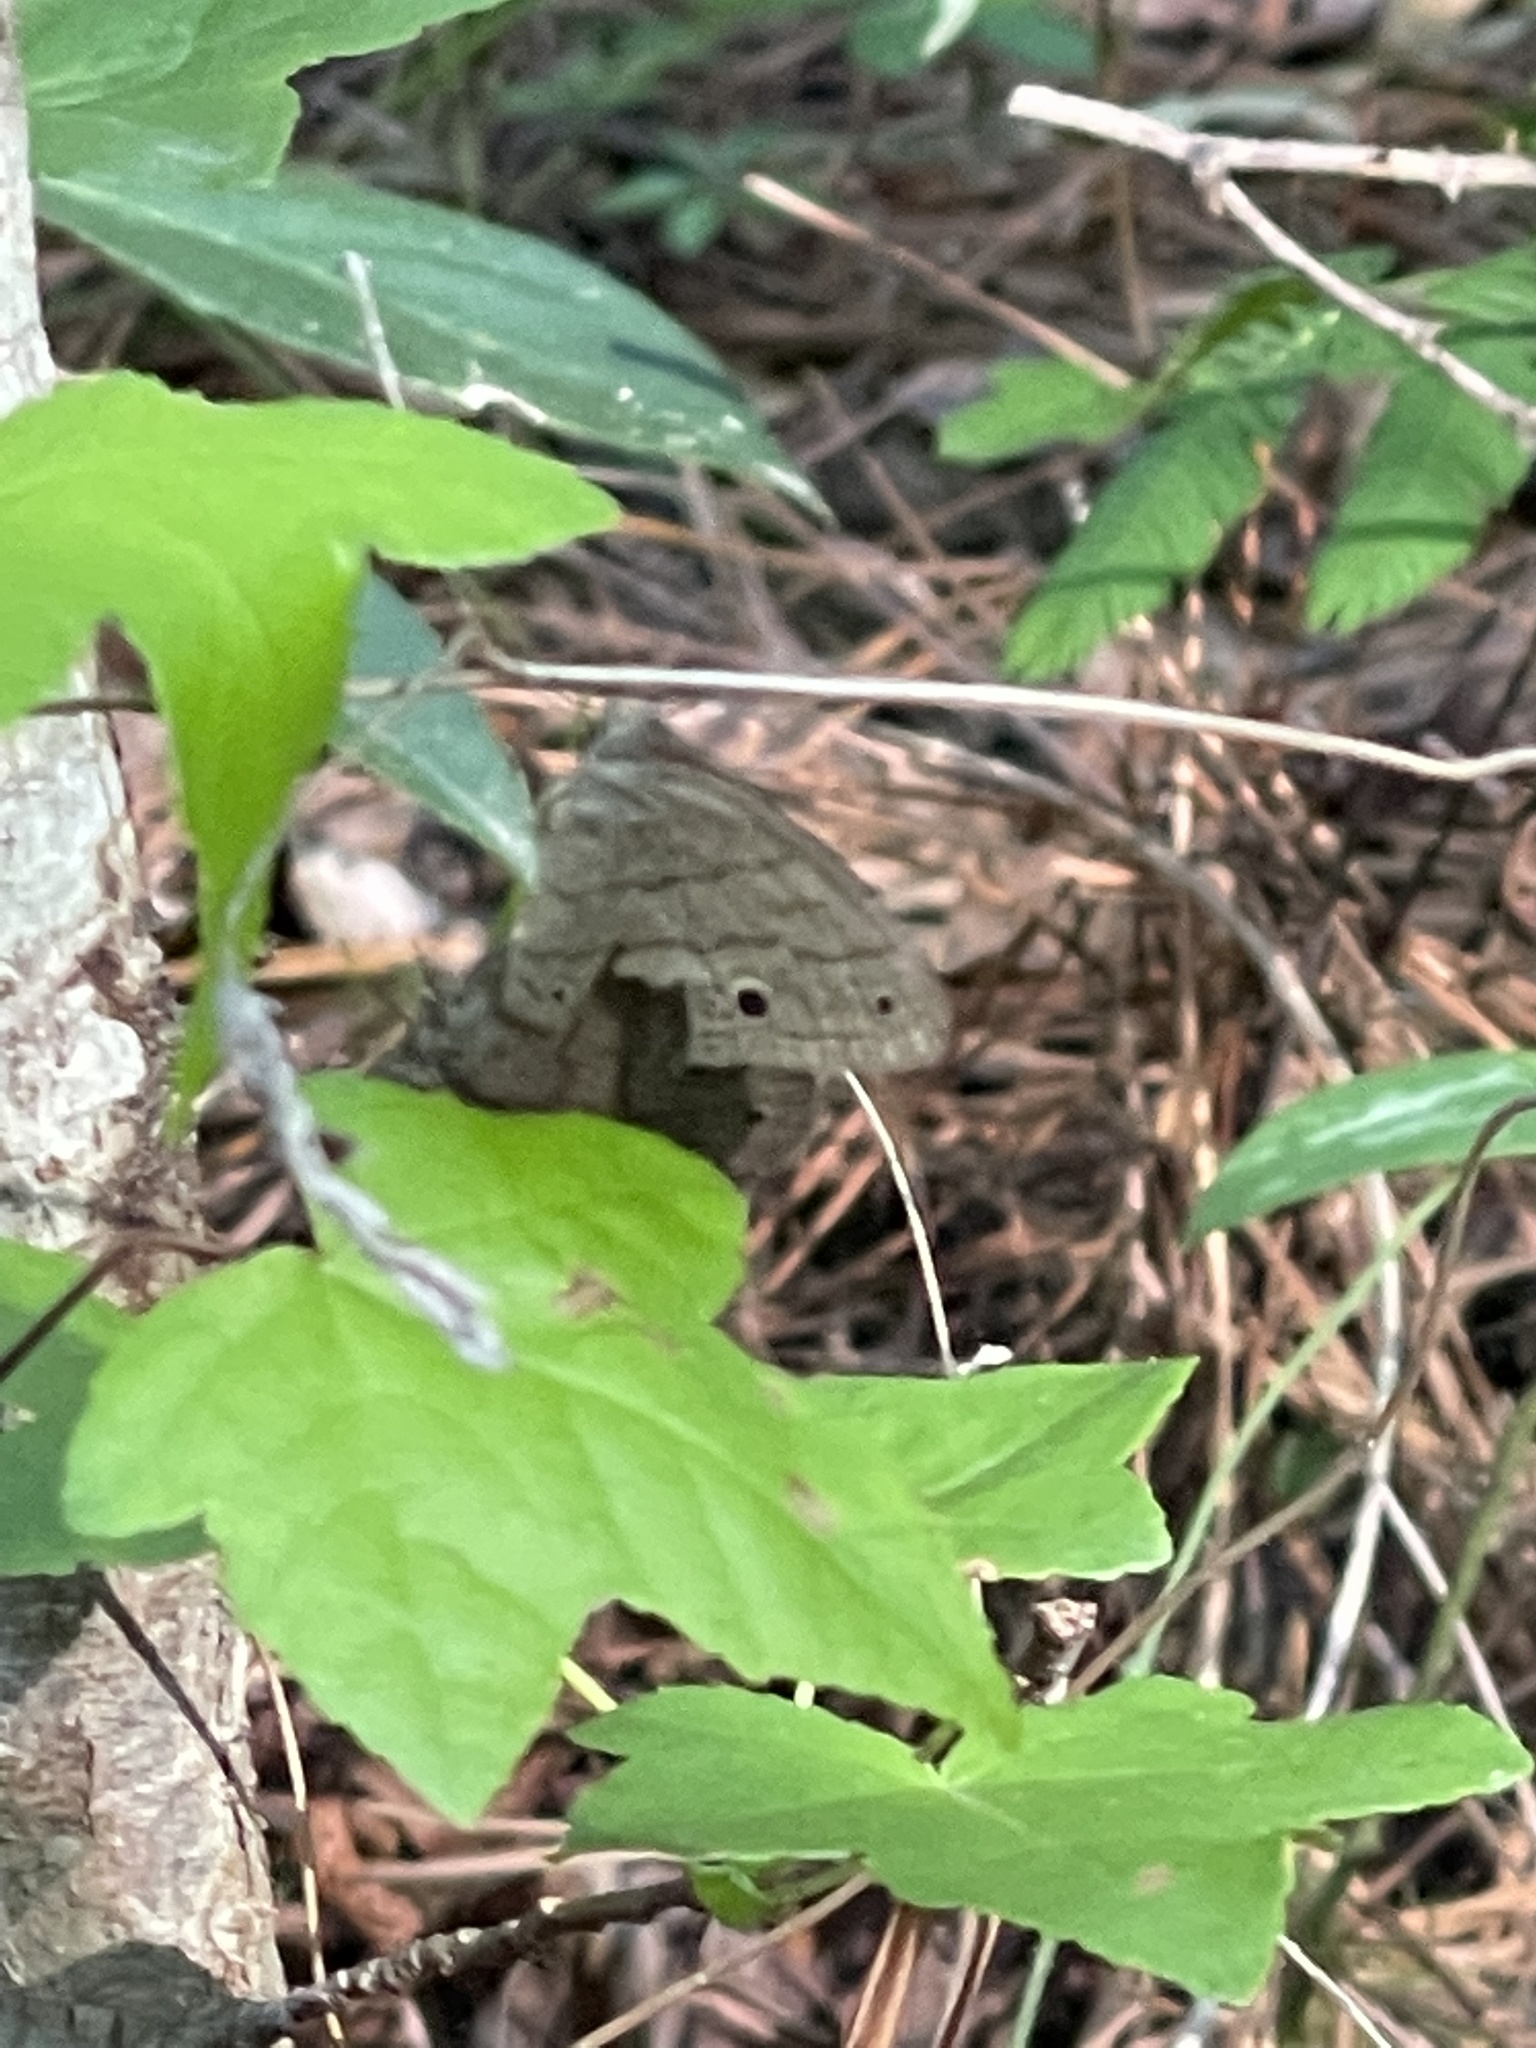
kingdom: Animalia
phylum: Arthropoda
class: Insecta
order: Lepidoptera
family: Nymphalidae
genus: Hermeuptychia
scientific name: Hermeuptychia hermes
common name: Hermes satyr
